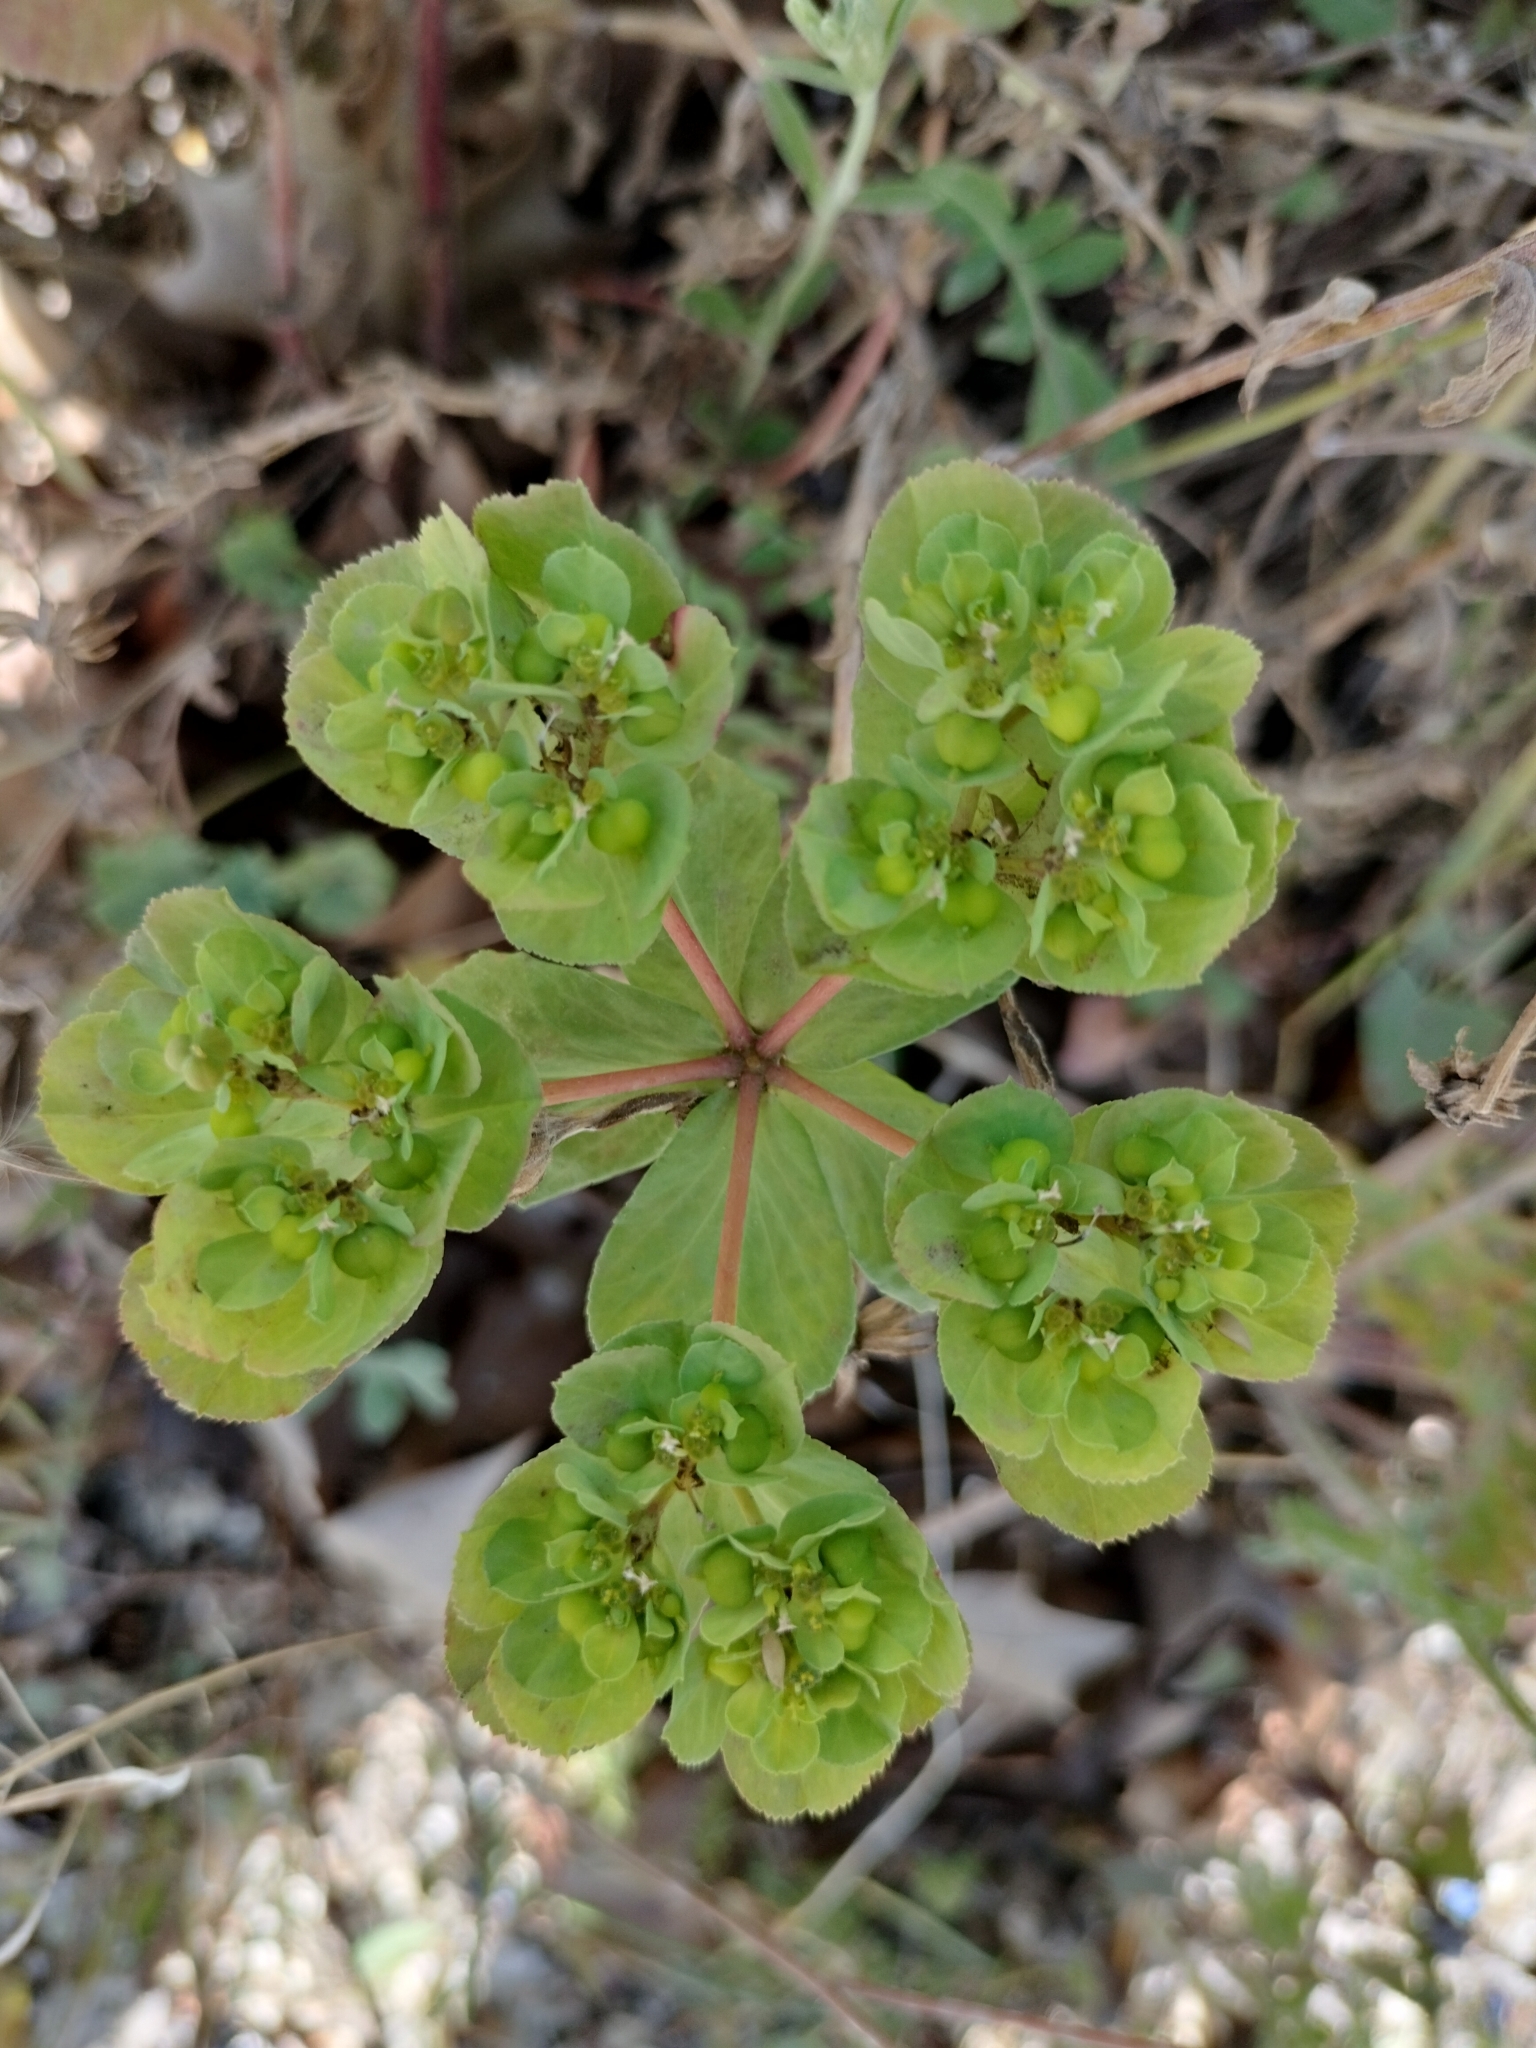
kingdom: Plantae
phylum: Tracheophyta
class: Magnoliopsida
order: Malpighiales
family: Euphorbiaceae
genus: Euphorbia
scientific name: Euphorbia helioscopia
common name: Sun spurge
